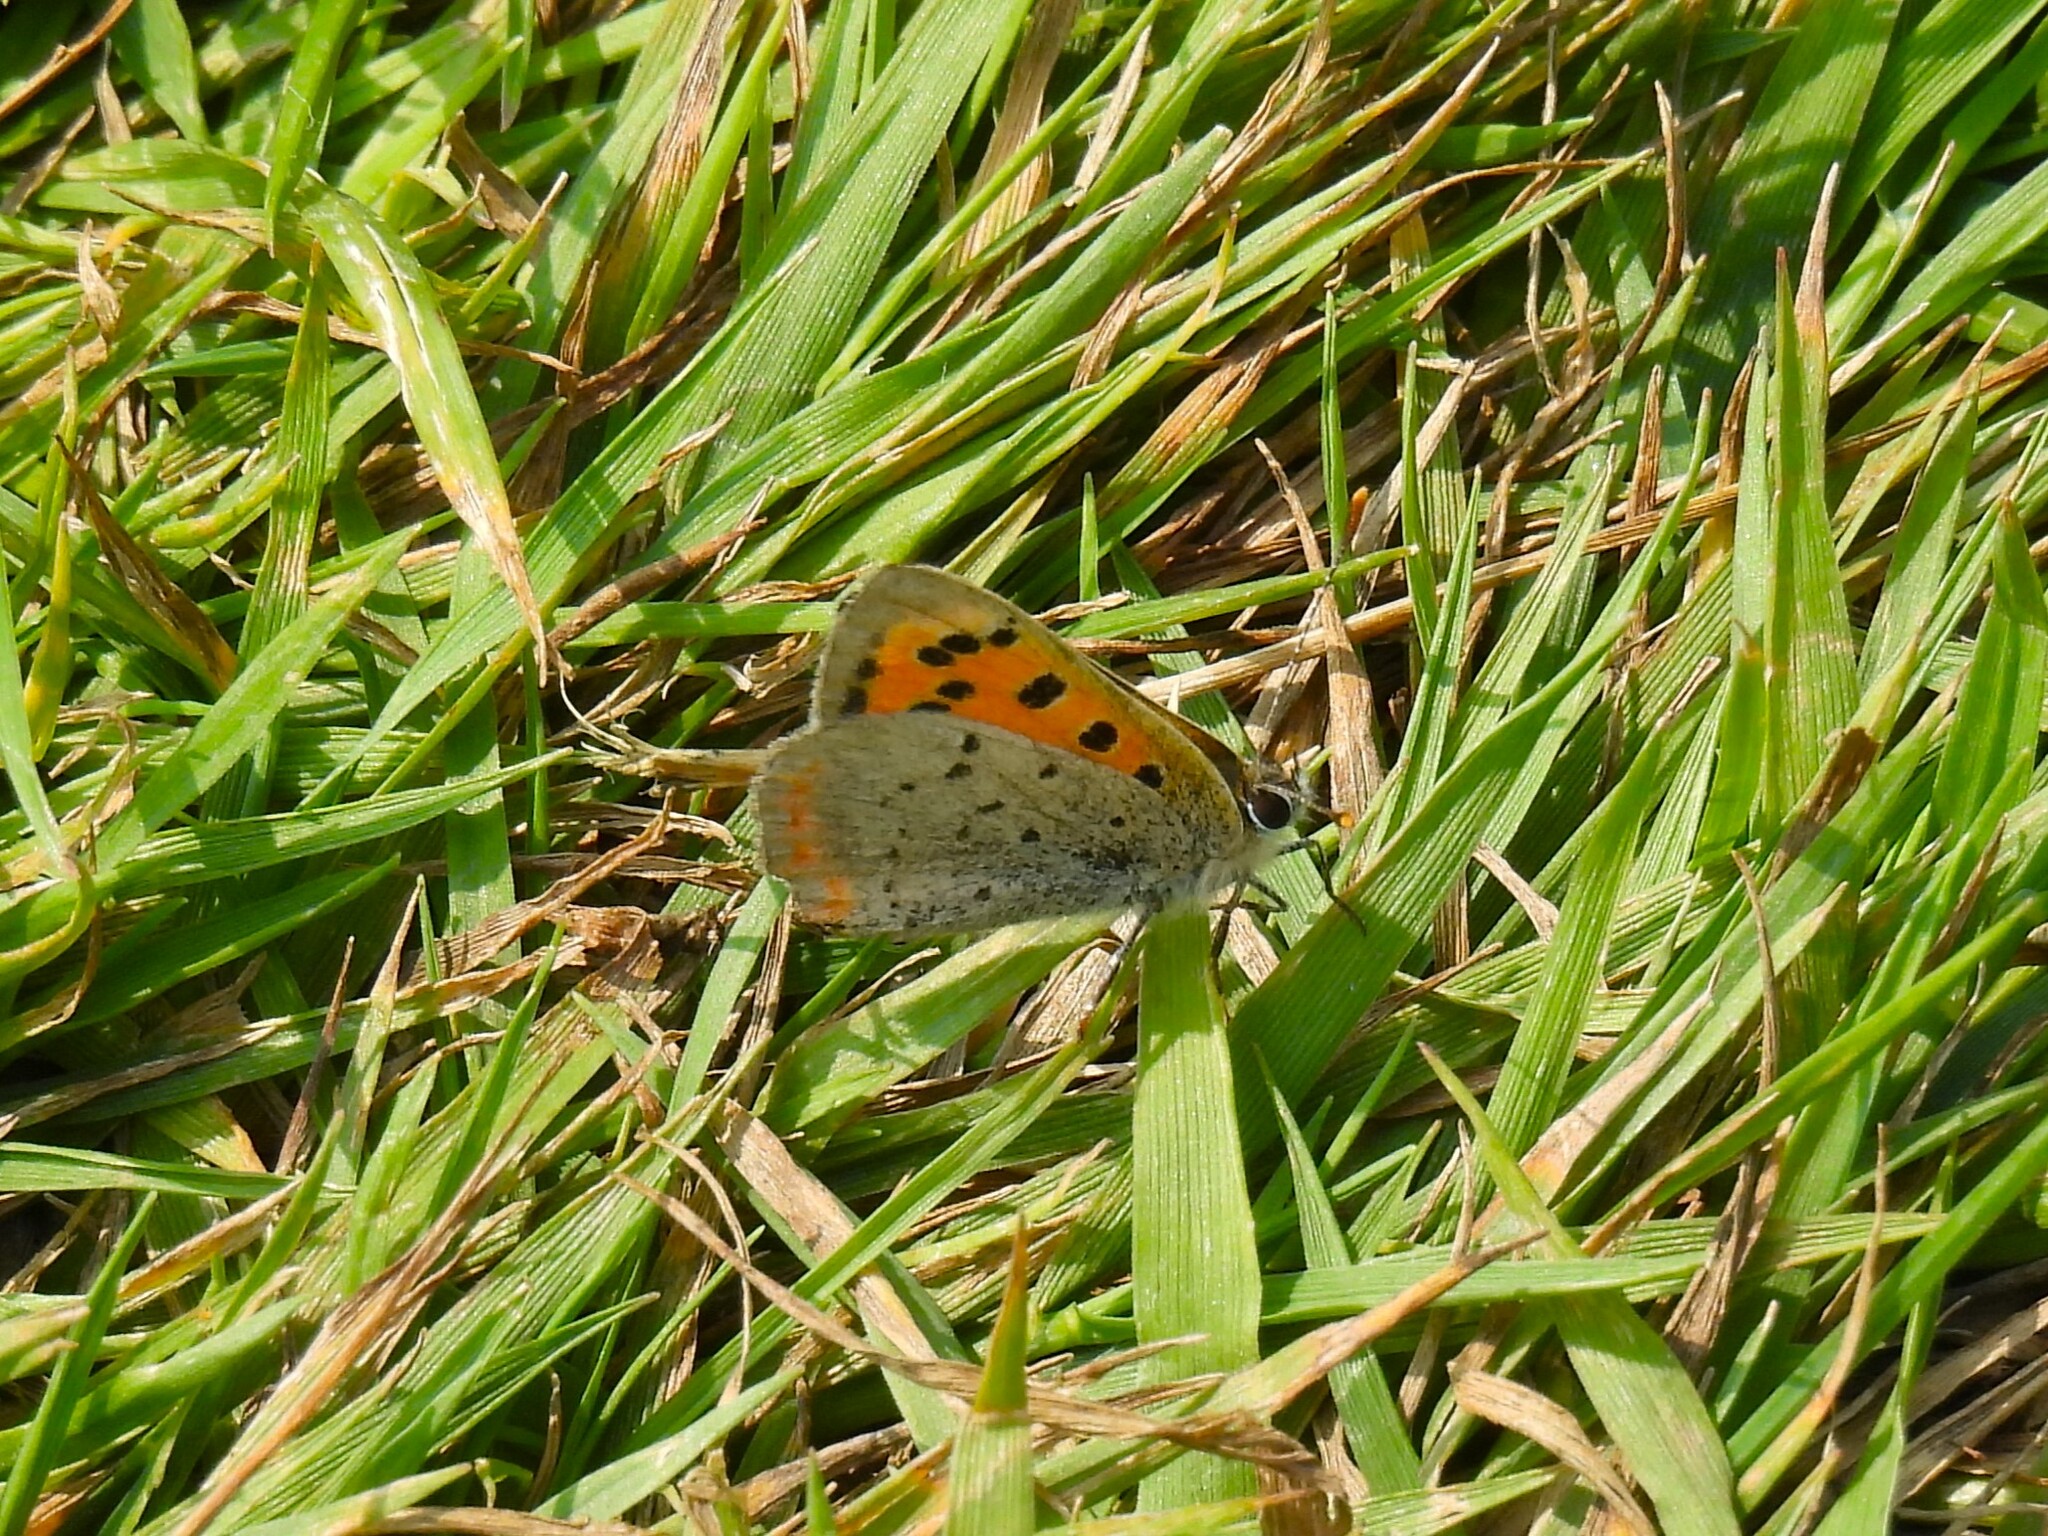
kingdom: Animalia
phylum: Arthropoda
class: Insecta
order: Lepidoptera
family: Lycaenidae
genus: Lycaena
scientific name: Lycaena phlaeas
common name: Small copper
